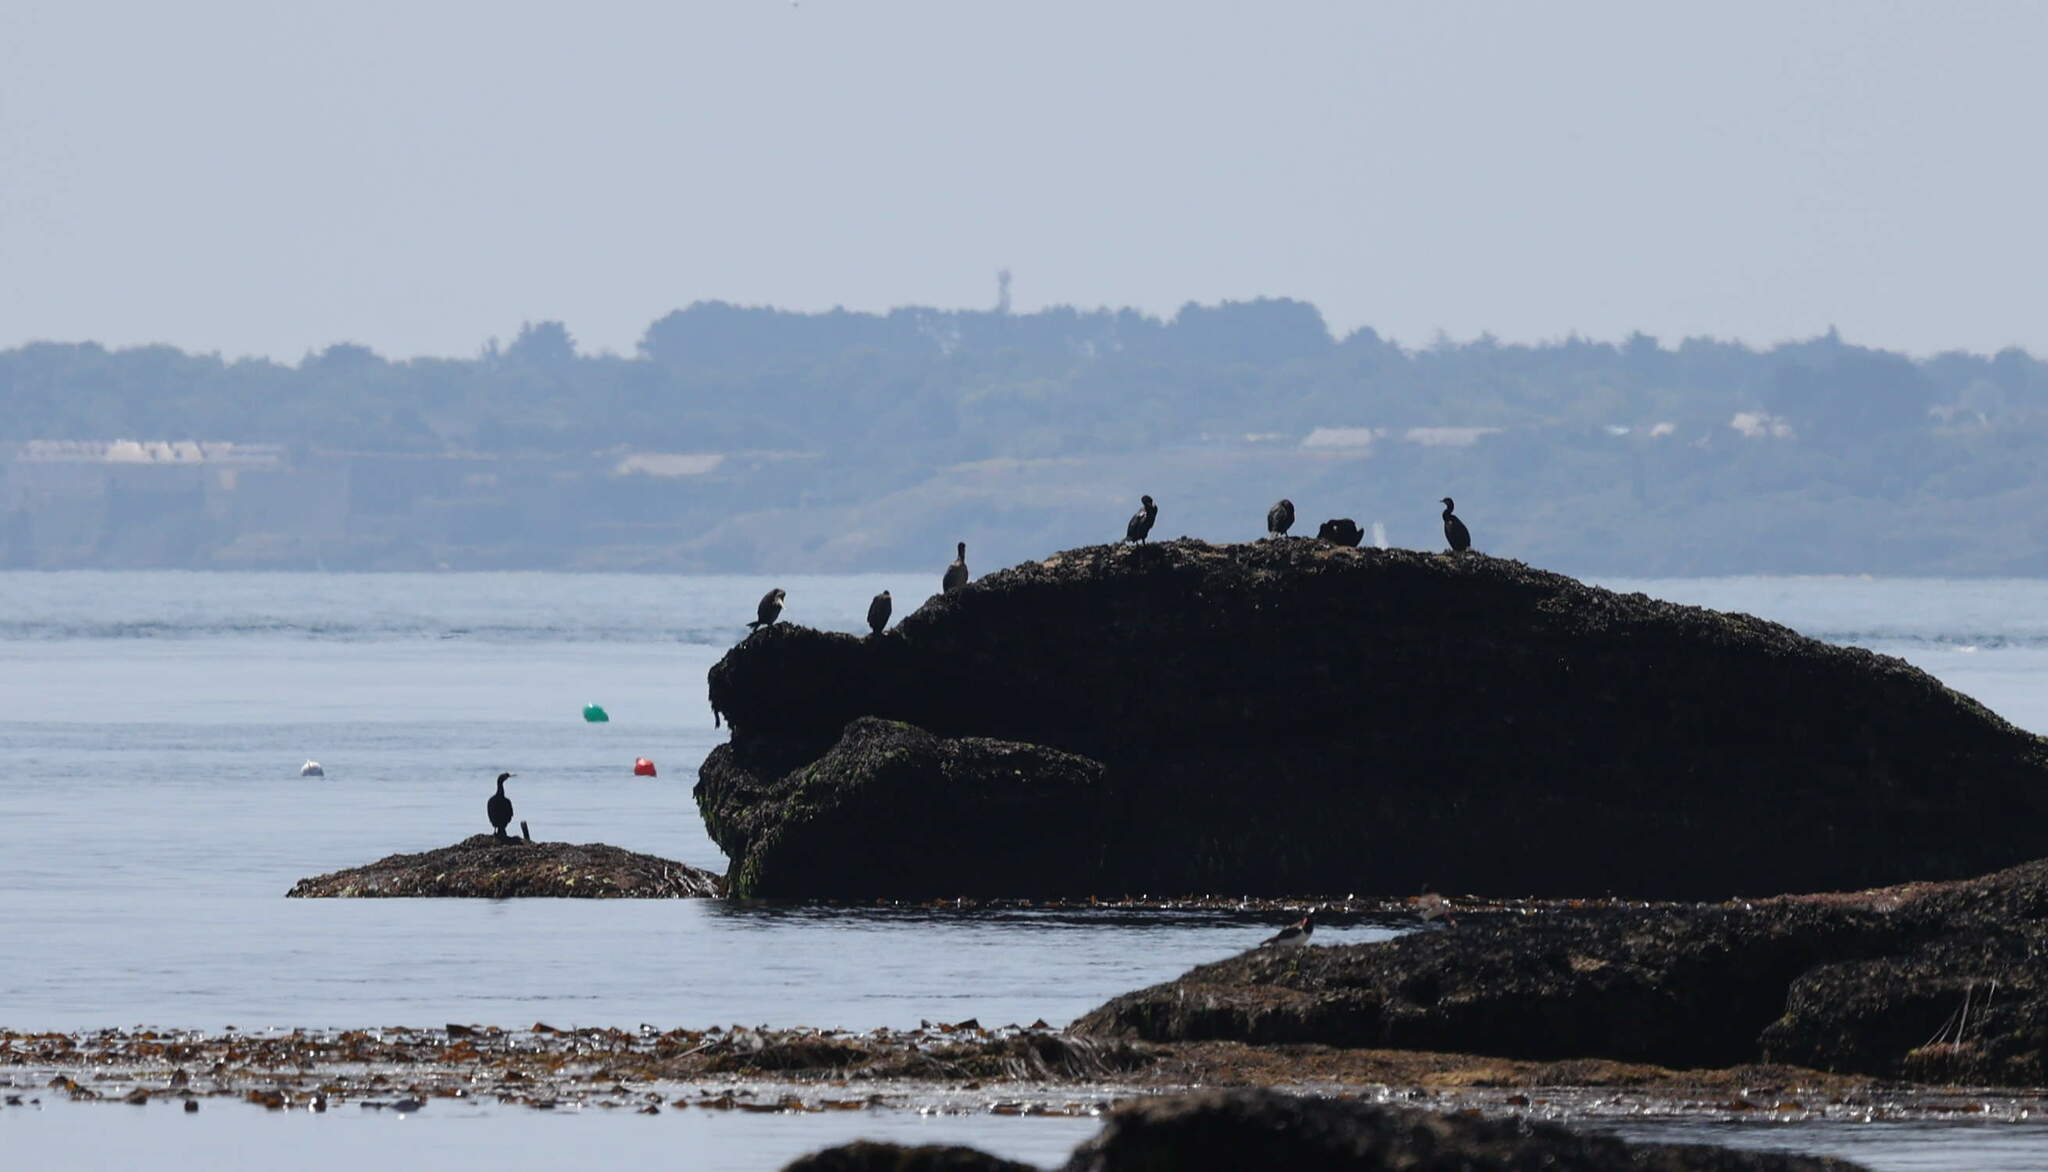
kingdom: Animalia
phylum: Chordata
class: Aves
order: Suliformes
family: Phalacrocoracidae
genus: Phalacrocorax
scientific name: Phalacrocorax aristotelis
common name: European shag
